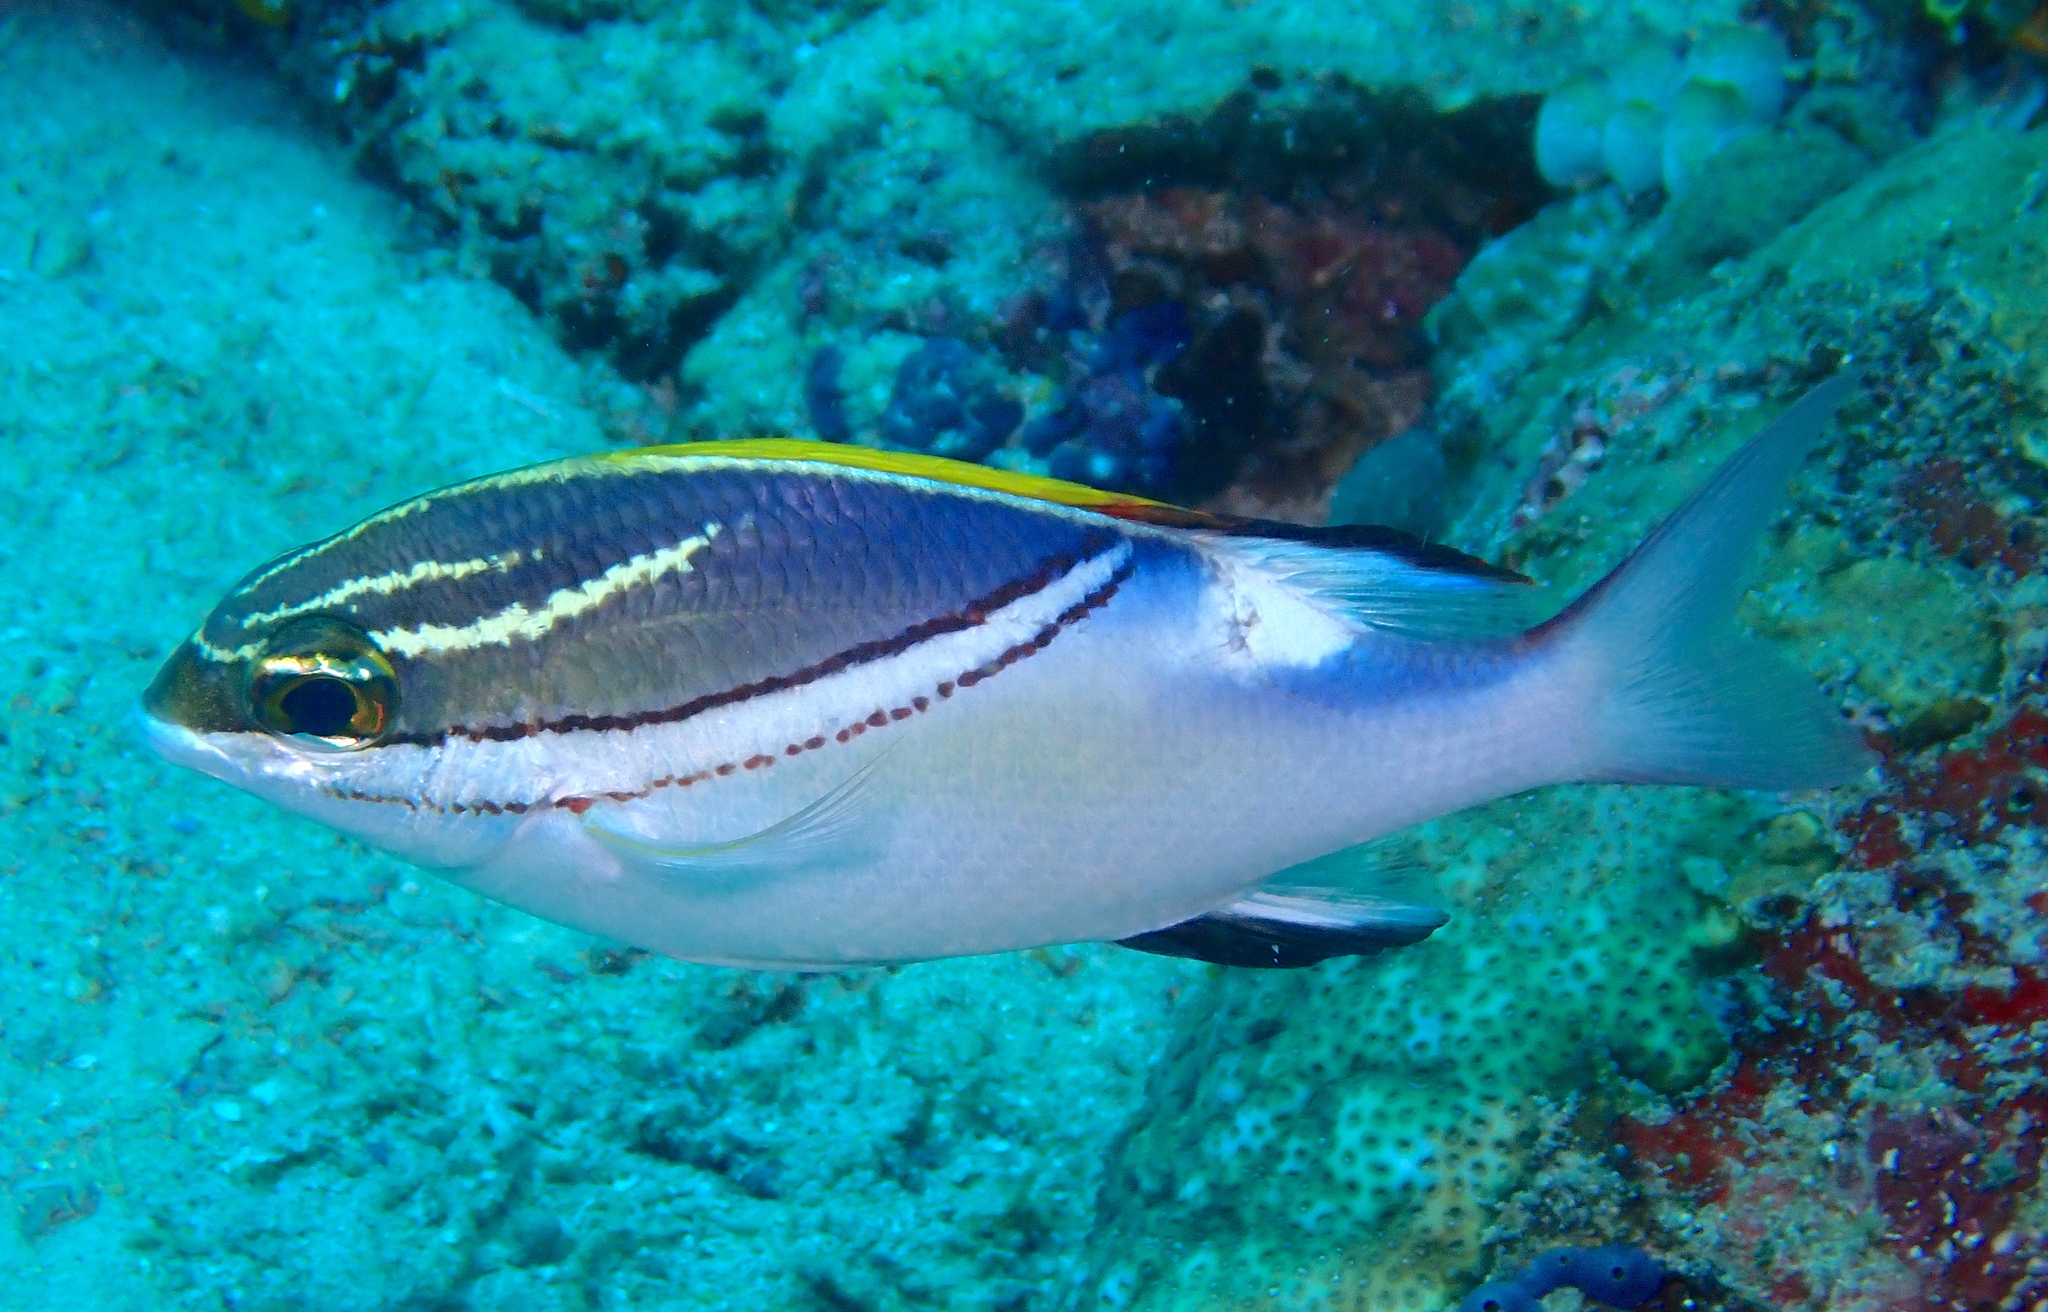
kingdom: Animalia
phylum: Chordata
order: Perciformes
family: Nemipteridae
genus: Scolopsis
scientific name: Scolopsis bilineata
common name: Two-lined monocle bream
